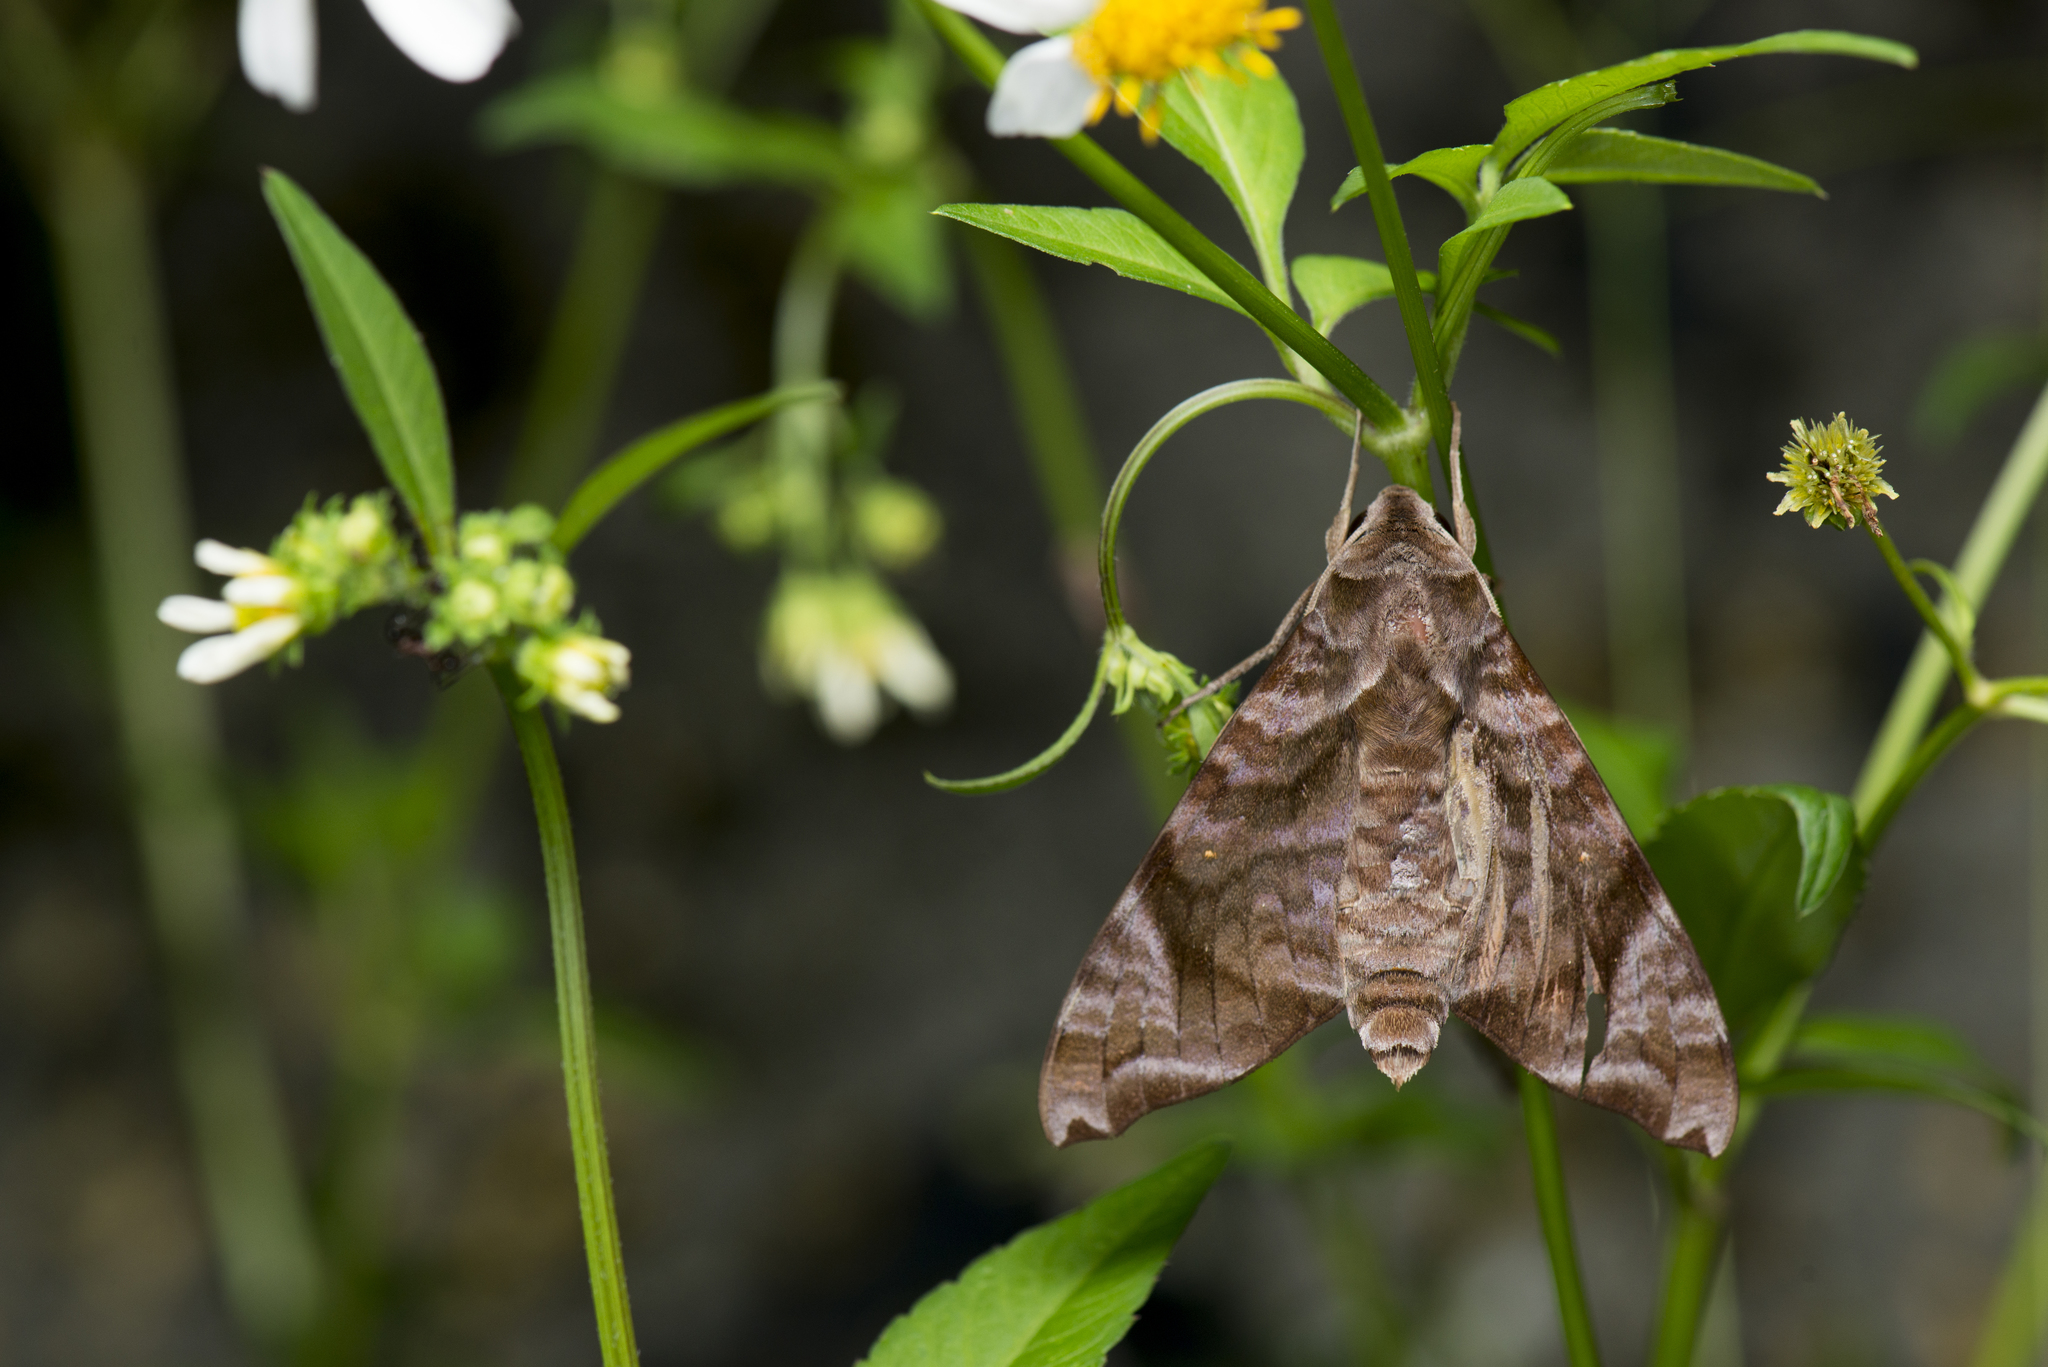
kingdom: Animalia
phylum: Arthropoda
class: Insecta
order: Lepidoptera
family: Sphingidae
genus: Acosmeryx
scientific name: Acosmeryx castanea
